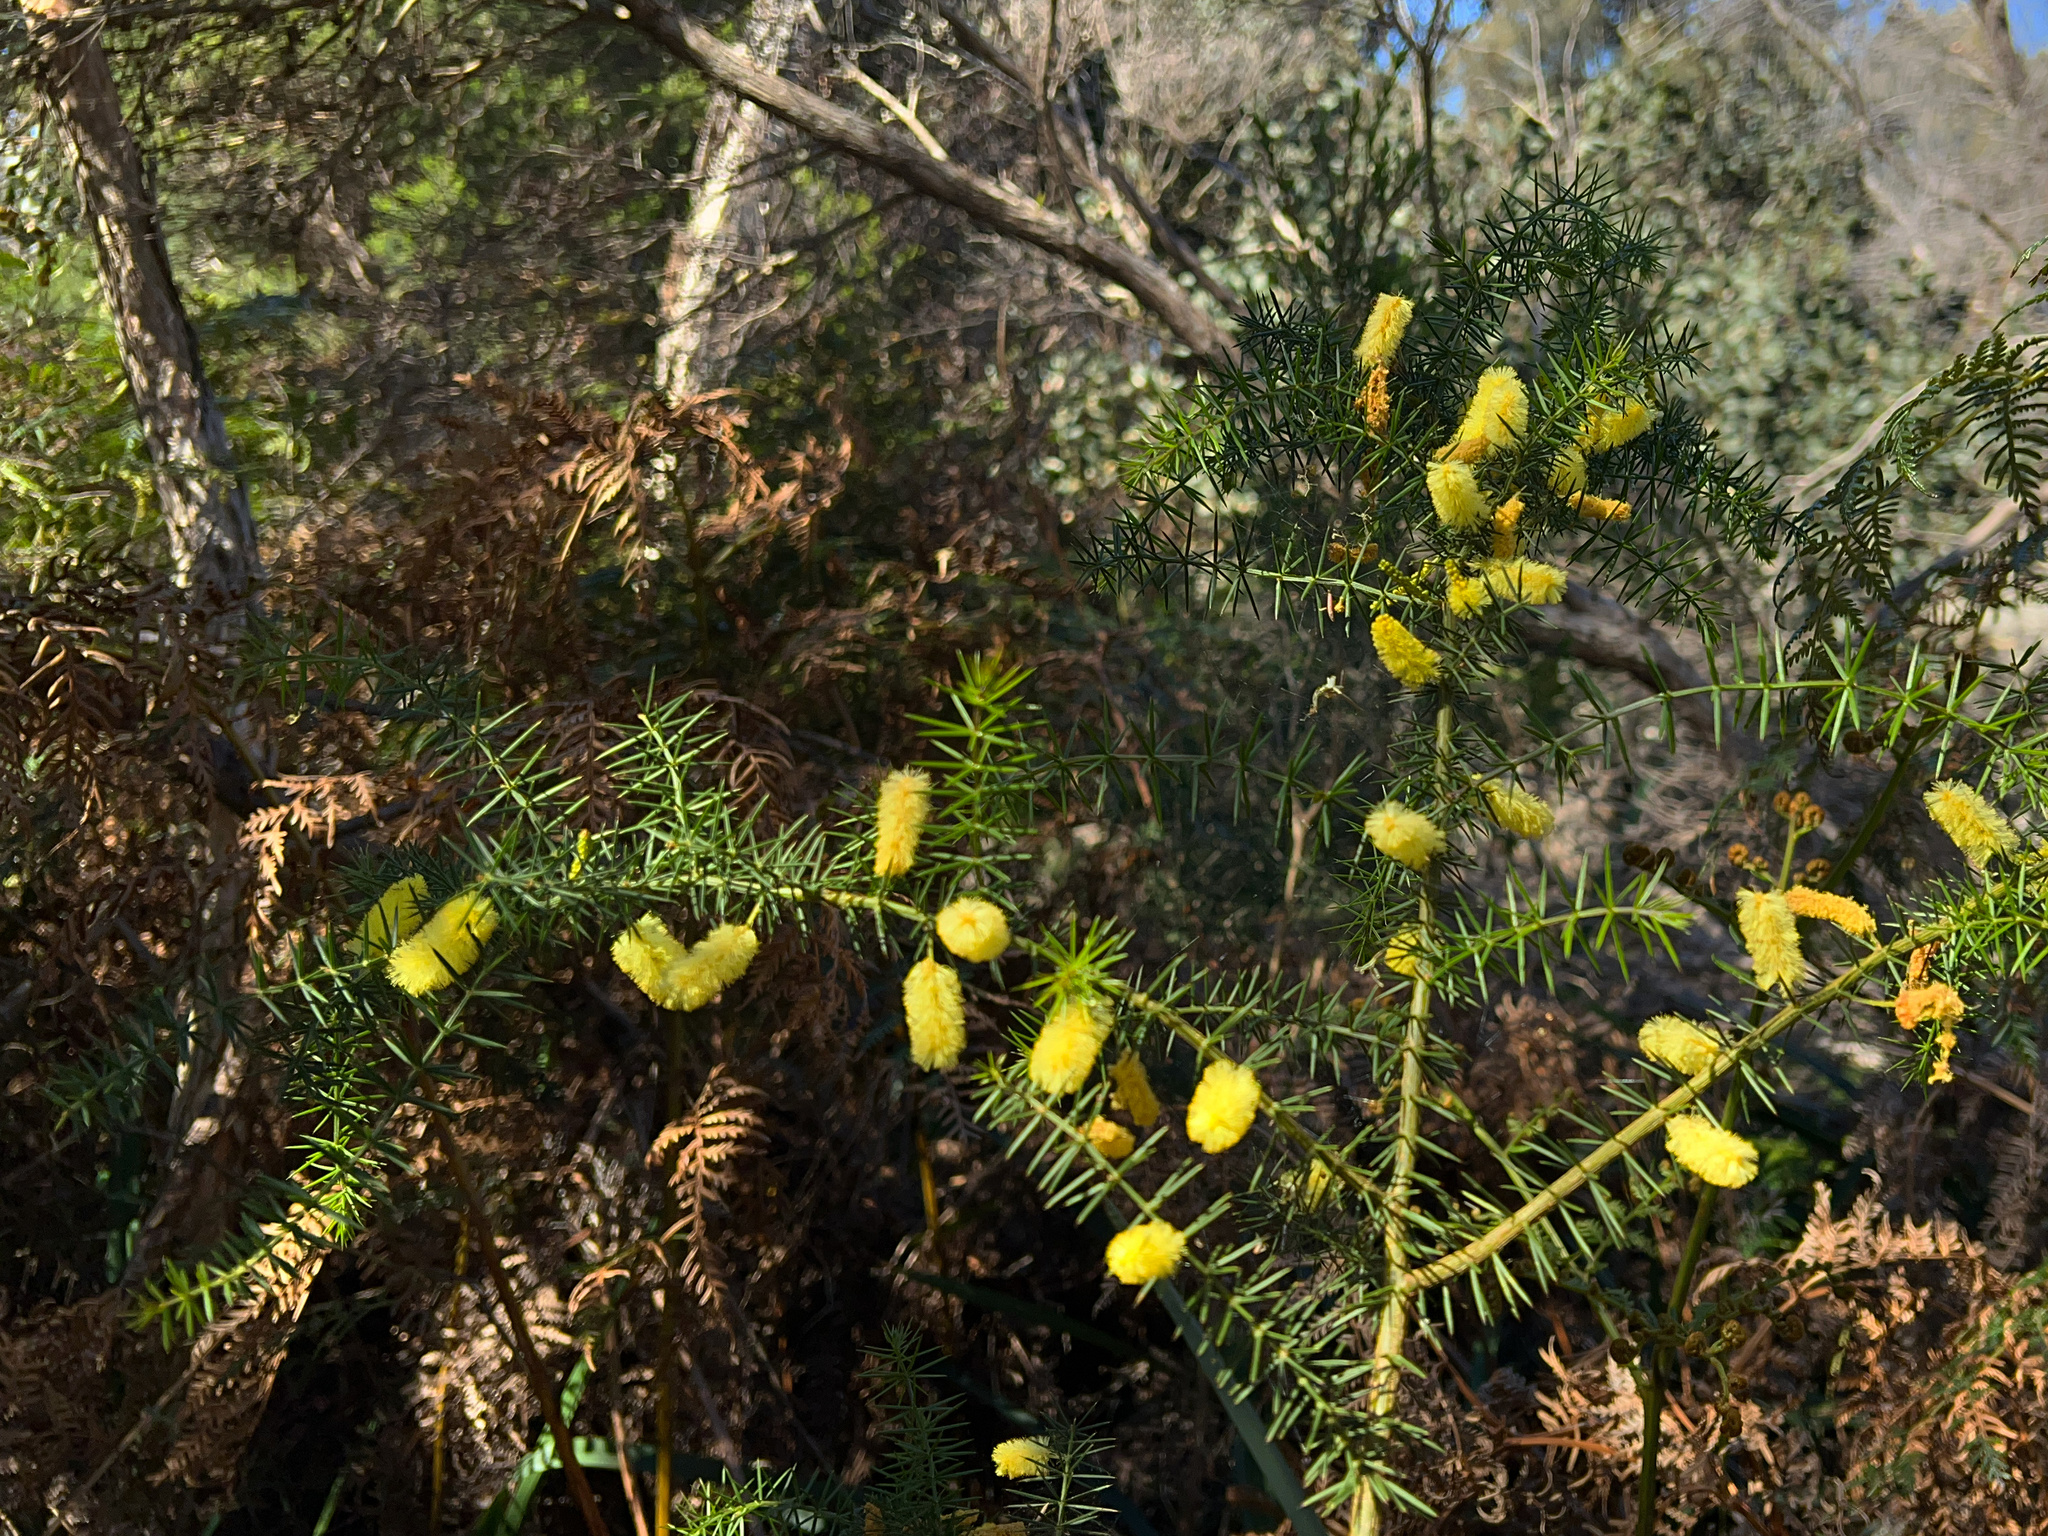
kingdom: Plantae
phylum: Tracheophyta
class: Magnoliopsida
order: Fabales
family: Fabaceae
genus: Acacia
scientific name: Acacia verticillata
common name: Prickly moses
